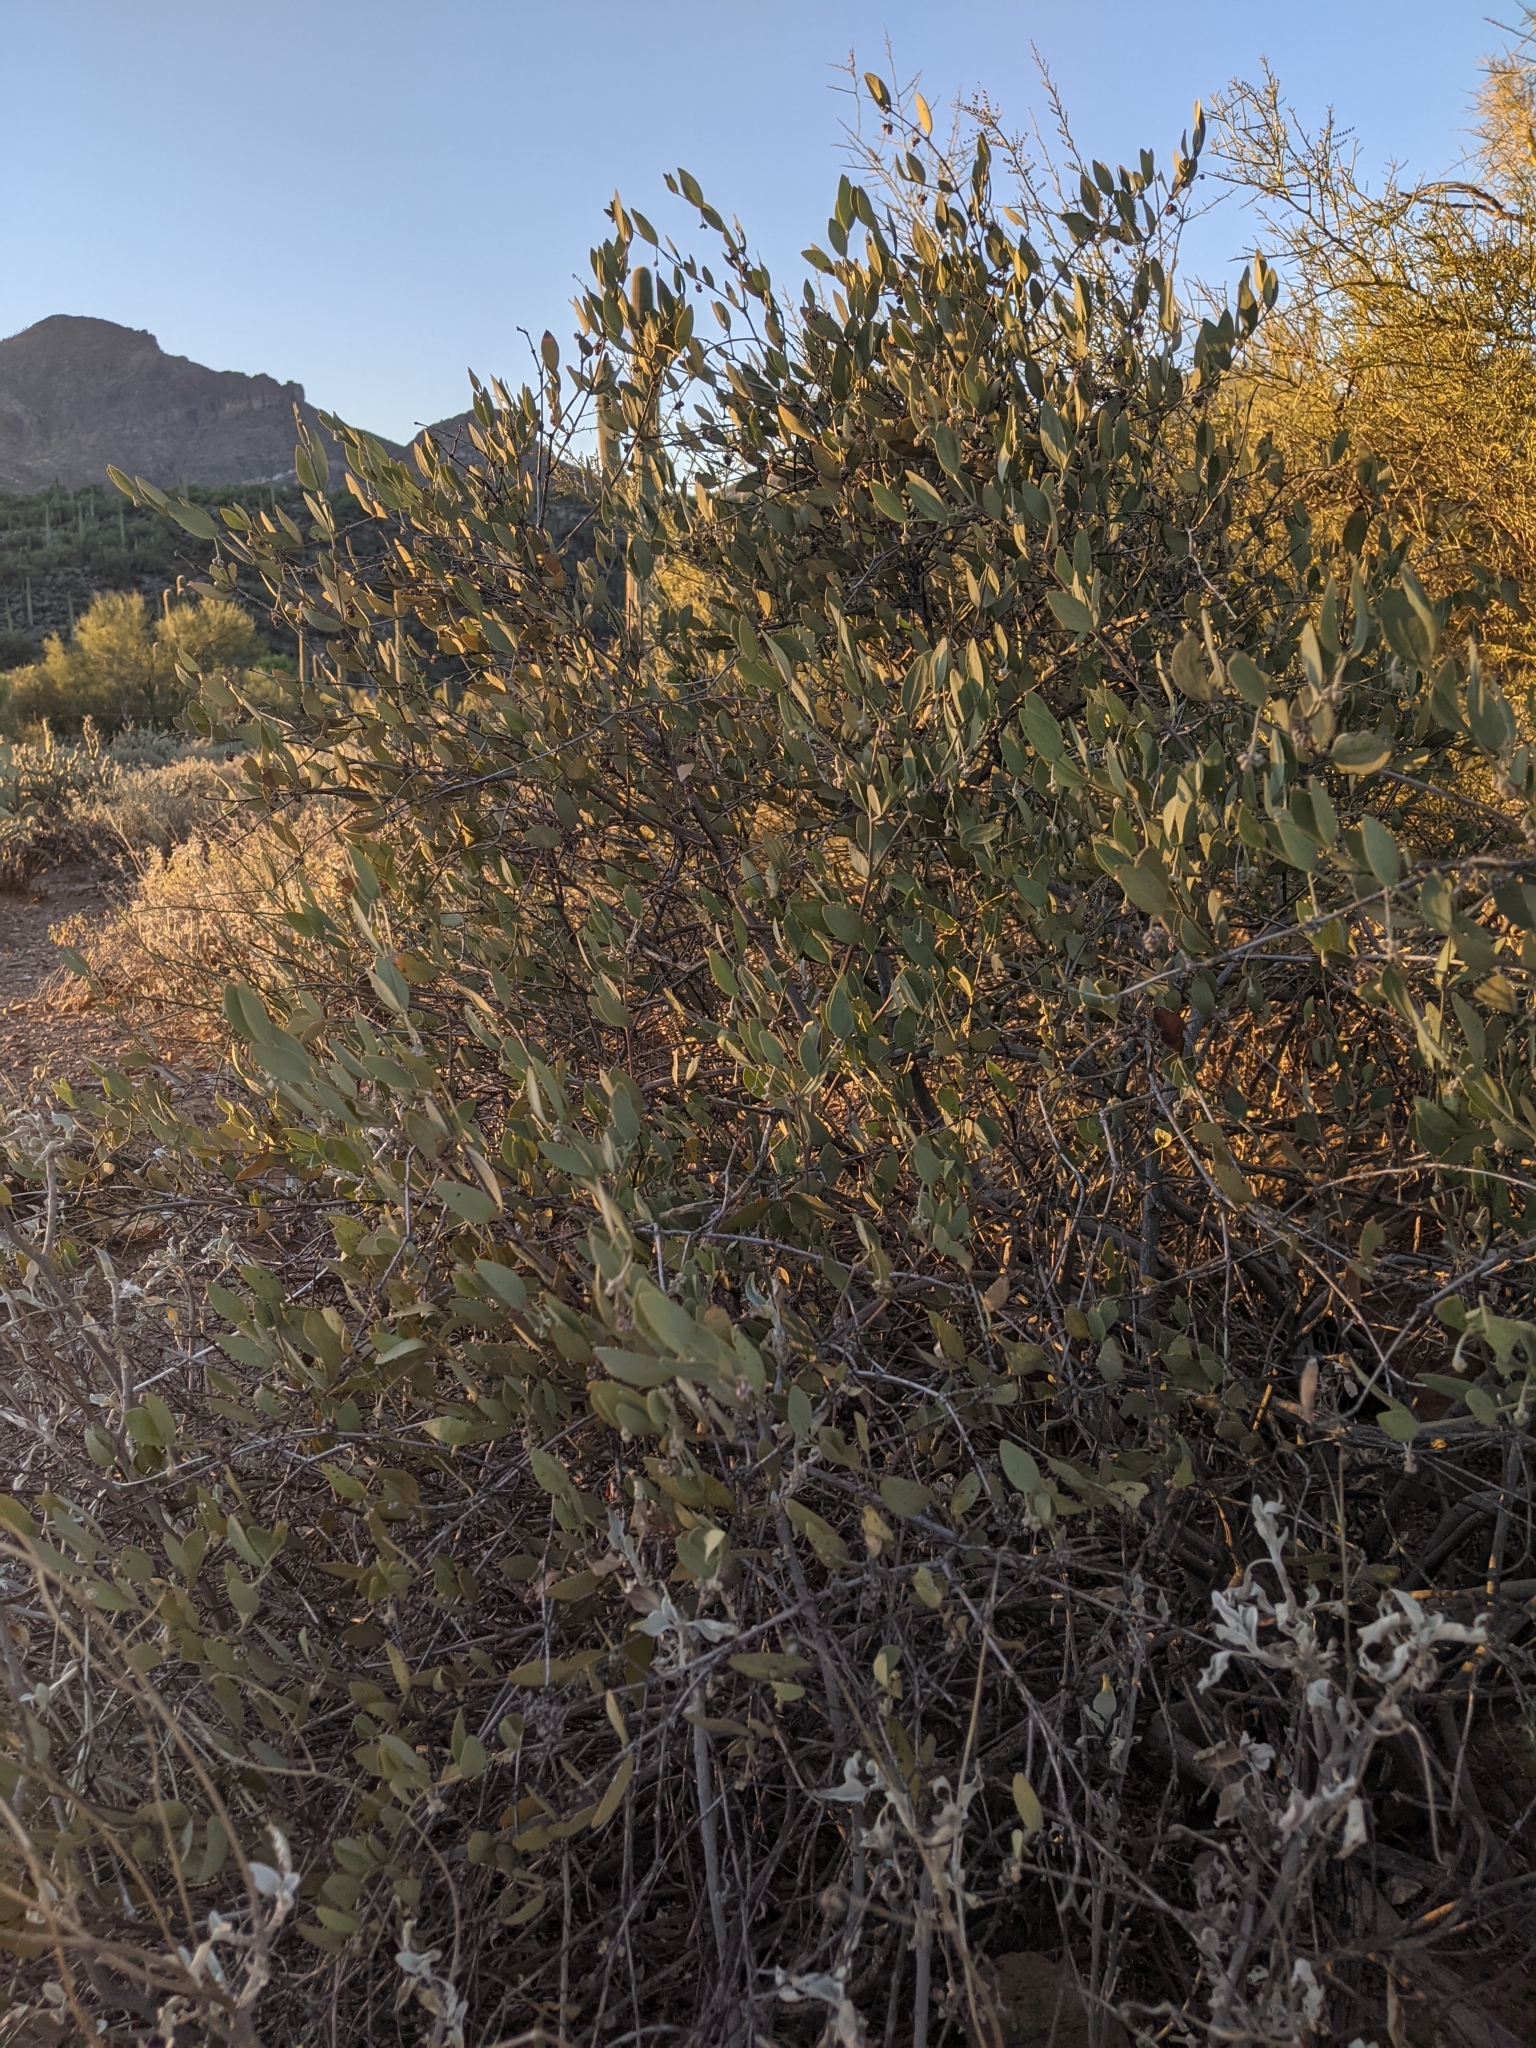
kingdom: Plantae
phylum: Tracheophyta
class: Magnoliopsida
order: Caryophyllales
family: Simmondsiaceae
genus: Simmondsia
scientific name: Simmondsia chinensis
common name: Jojoba
